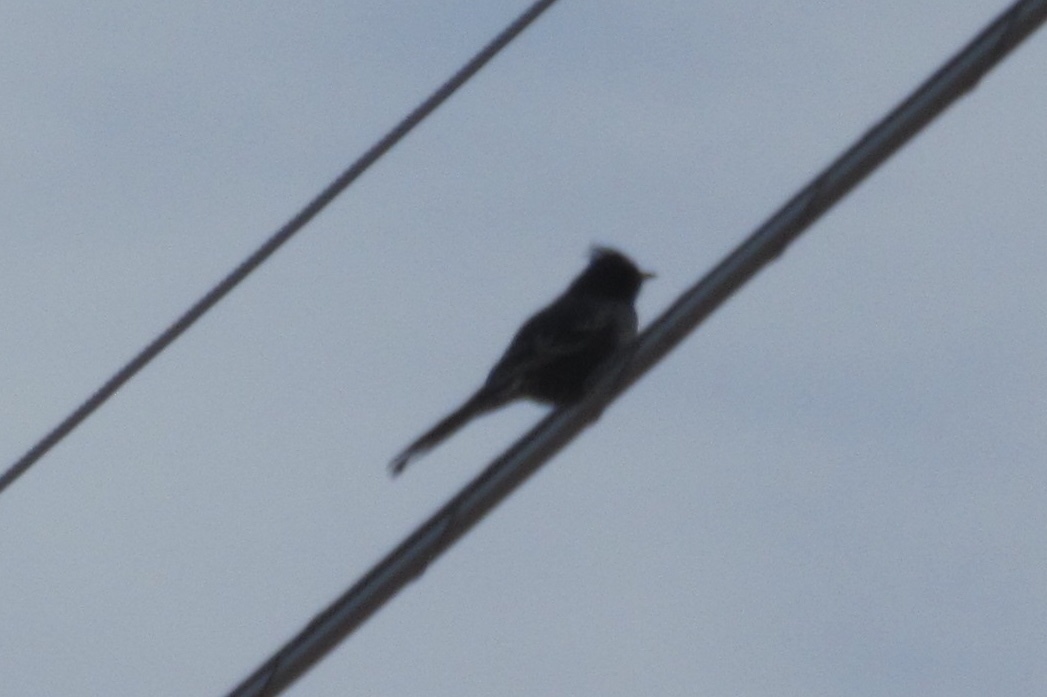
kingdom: Animalia
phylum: Chordata
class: Aves
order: Passeriformes
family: Ptilogonatidae
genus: Phainopepla
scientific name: Phainopepla nitens
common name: Phainopepla
